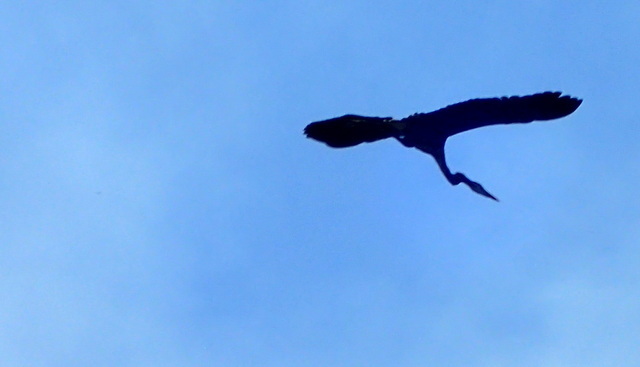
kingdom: Animalia
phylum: Chordata
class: Aves
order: Pelecaniformes
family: Ardeidae
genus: Ardea
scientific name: Ardea herodias
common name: Great blue heron
